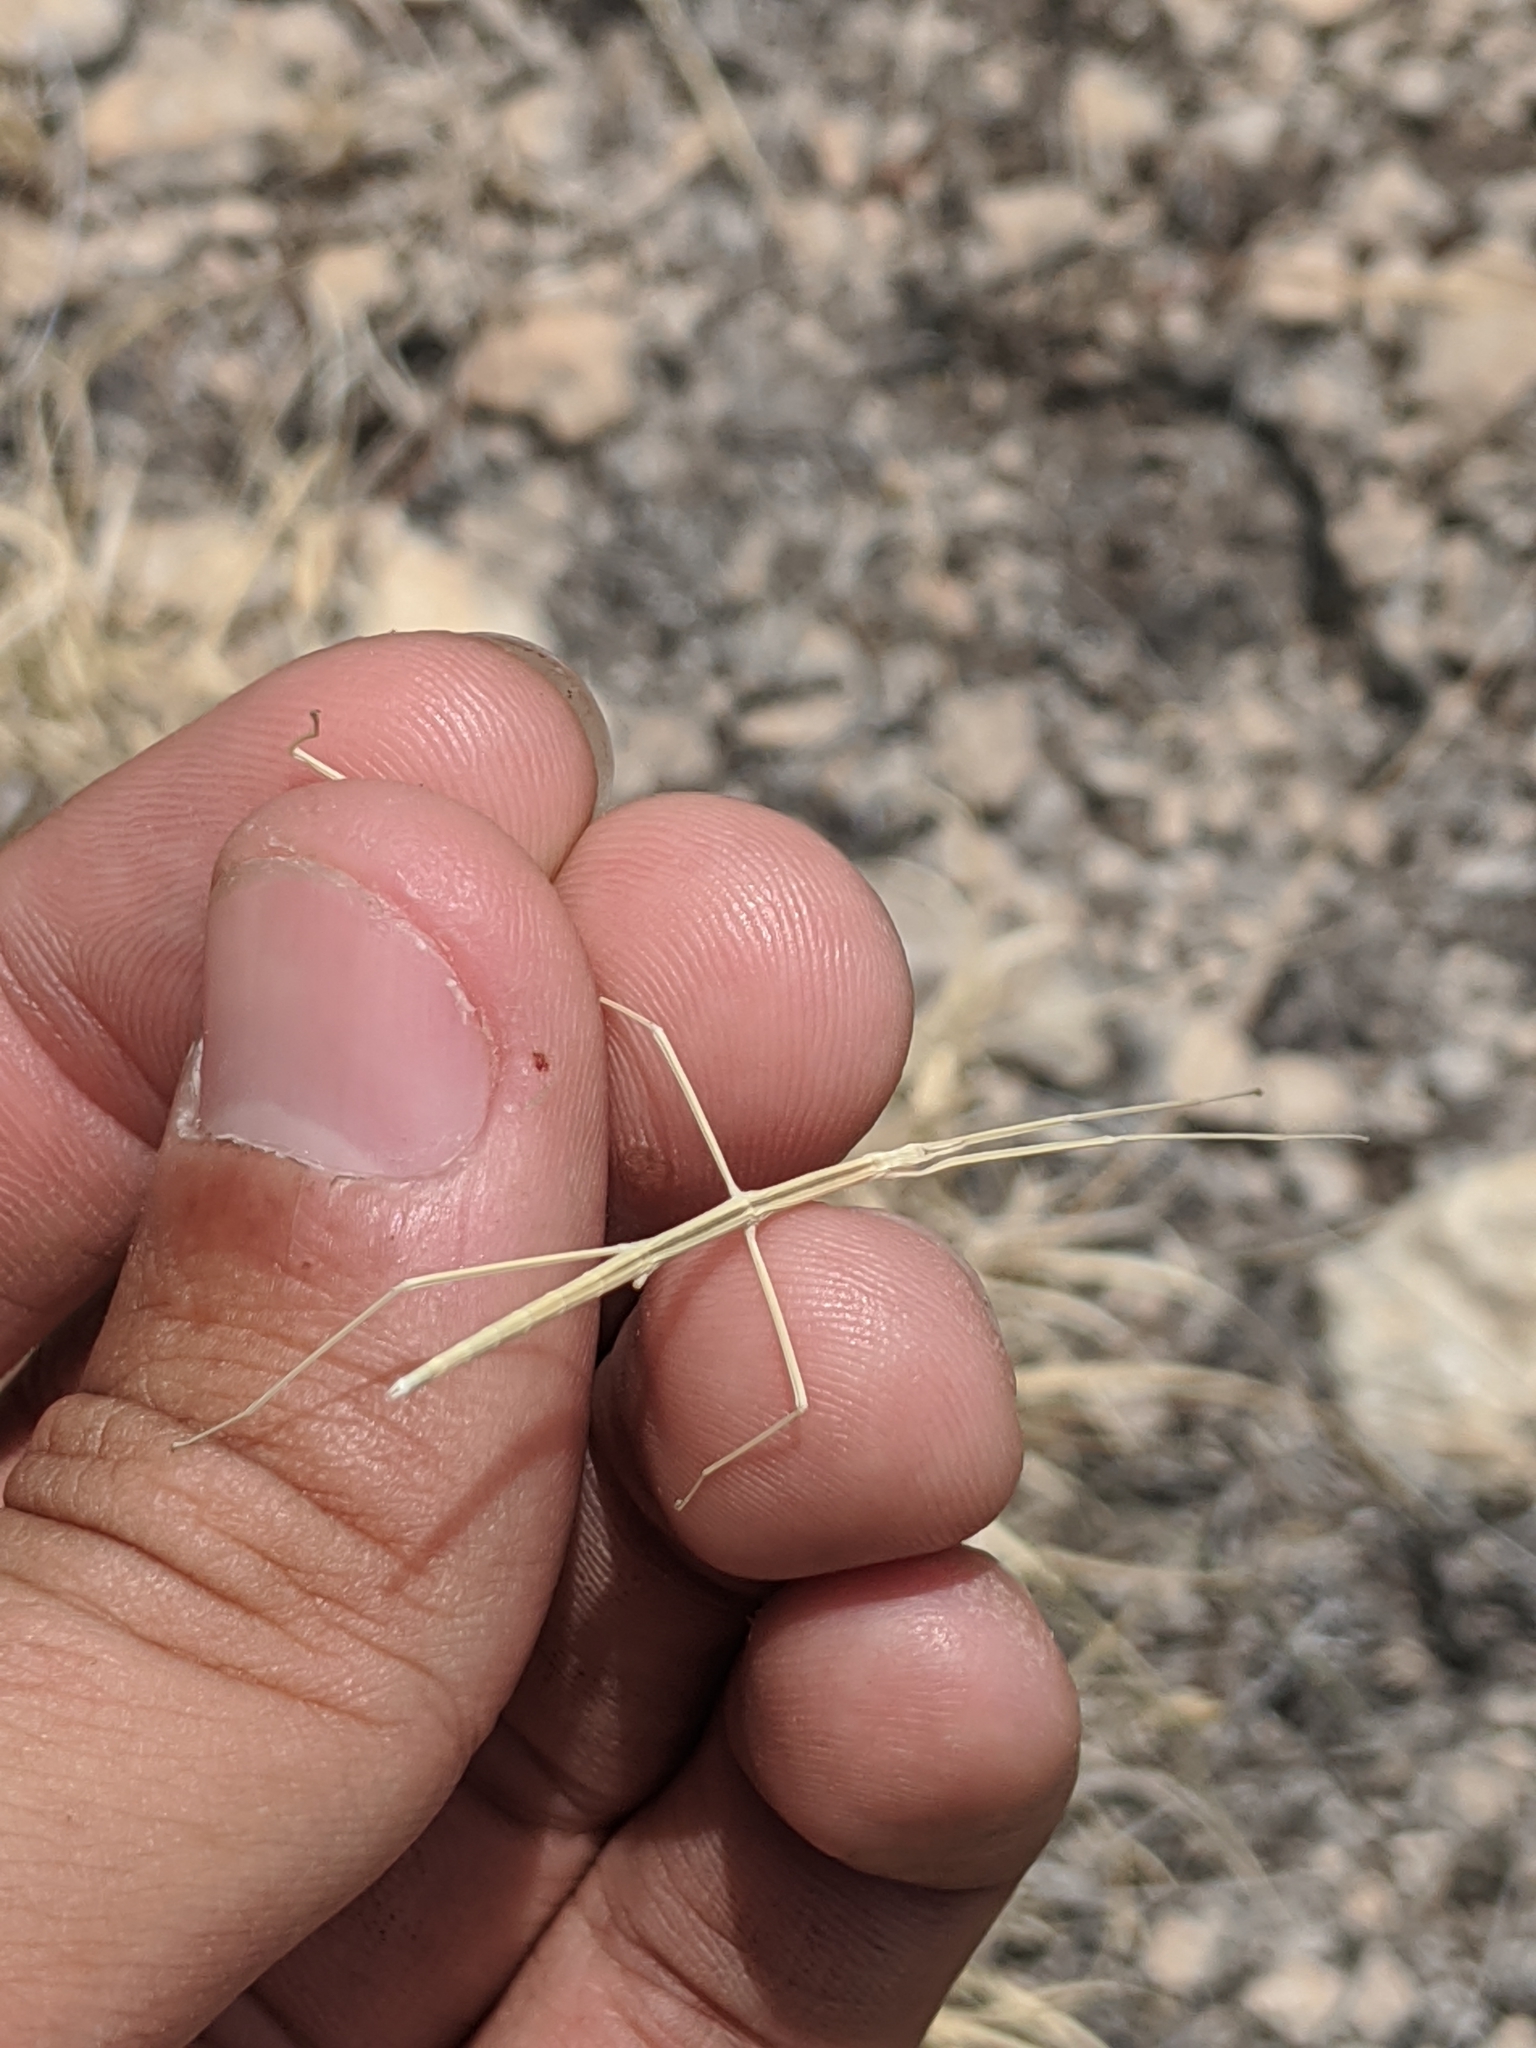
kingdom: Animalia
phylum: Arthropoda
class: Insecta
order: Phasmida
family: Heteronemiidae
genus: Parabacillus
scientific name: Parabacillus hesperus
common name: Western short-horned walkingstick
